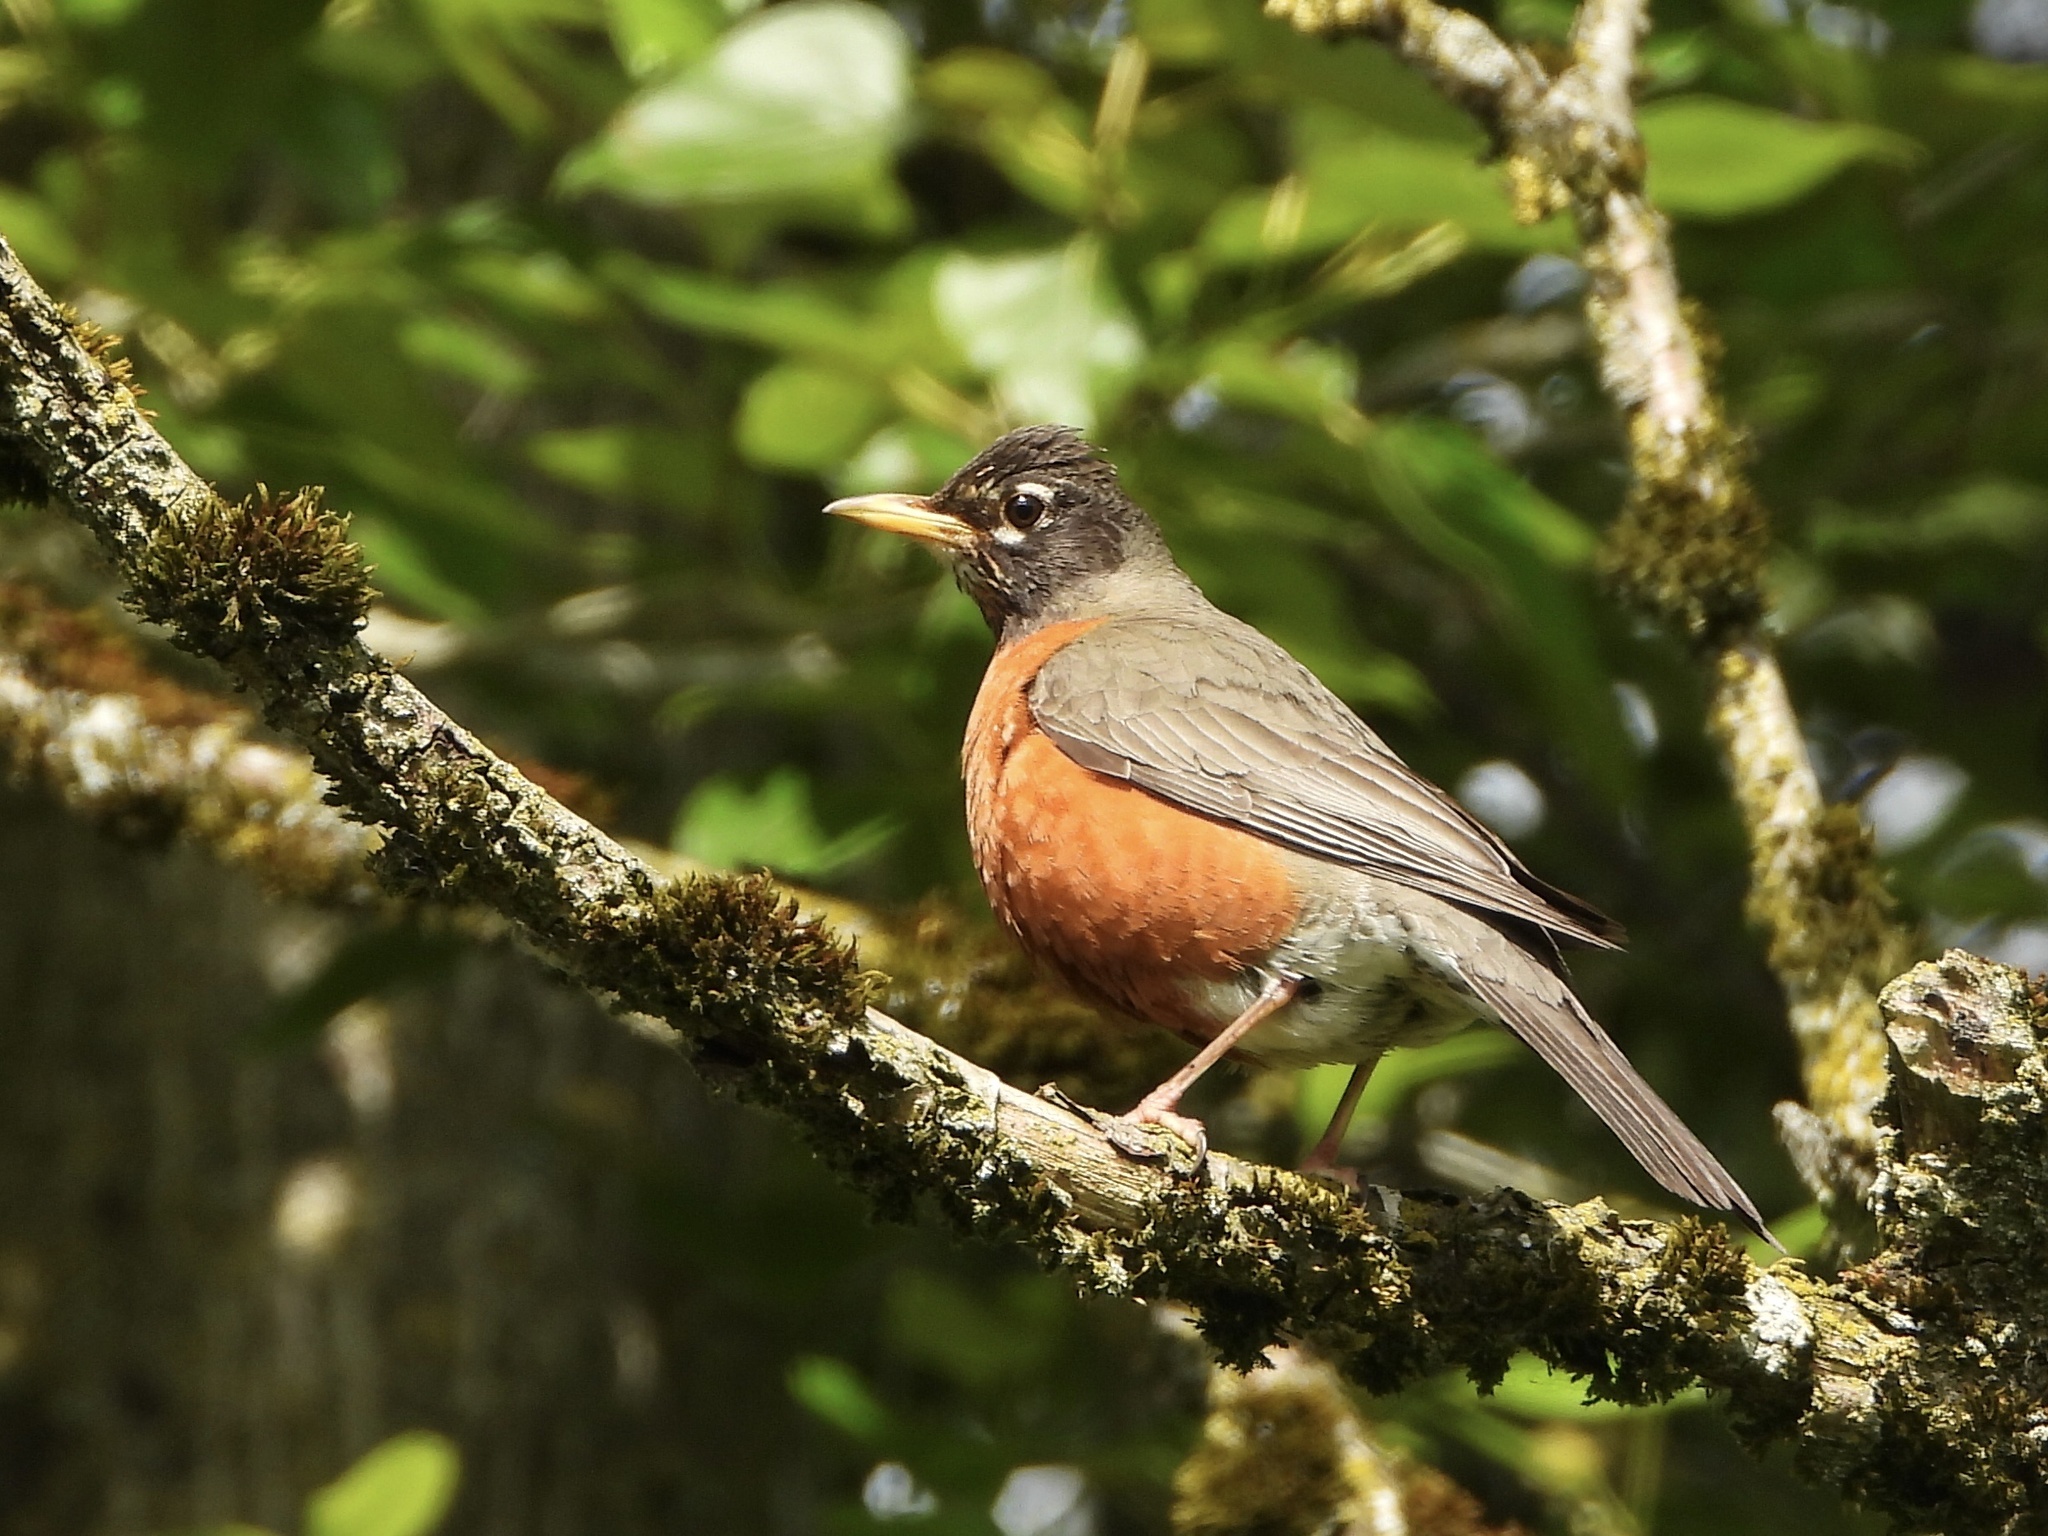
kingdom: Animalia
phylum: Chordata
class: Aves
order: Passeriformes
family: Turdidae
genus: Turdus
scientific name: Turdus migratorius
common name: American robin
